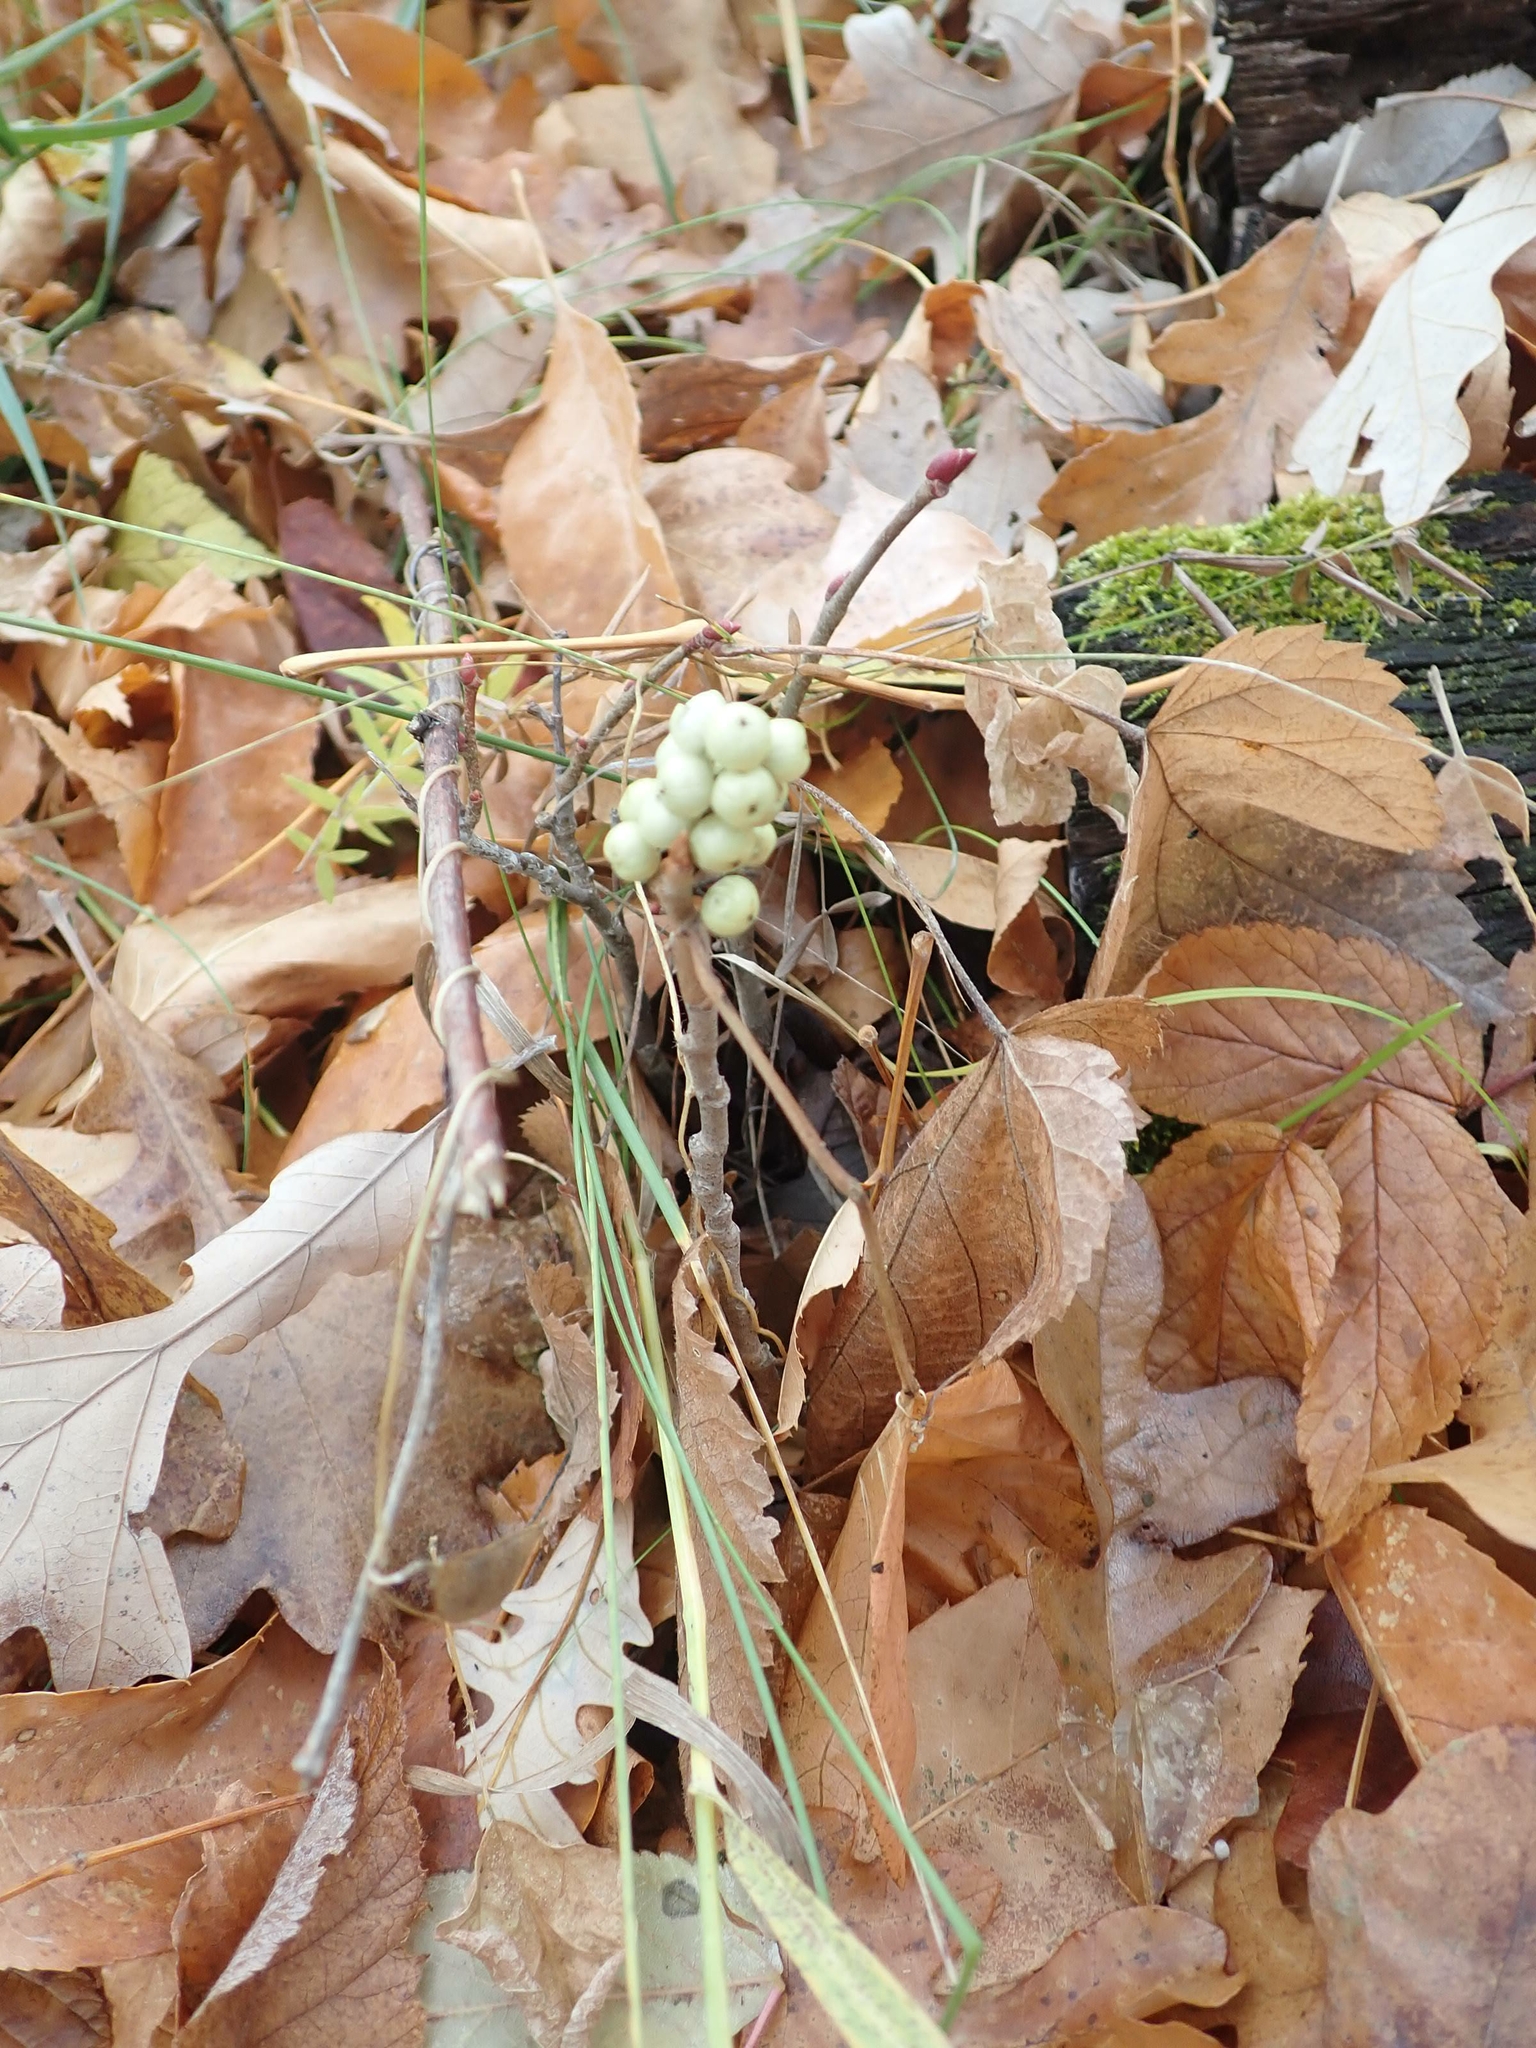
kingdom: Plantae
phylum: Tracheophyta
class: Magnoliopsida
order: Sapindales
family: Anacardiaceae
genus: Toxicodendron
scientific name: Toxicodendron rydbergii
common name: Rydberg's poison-ivy
